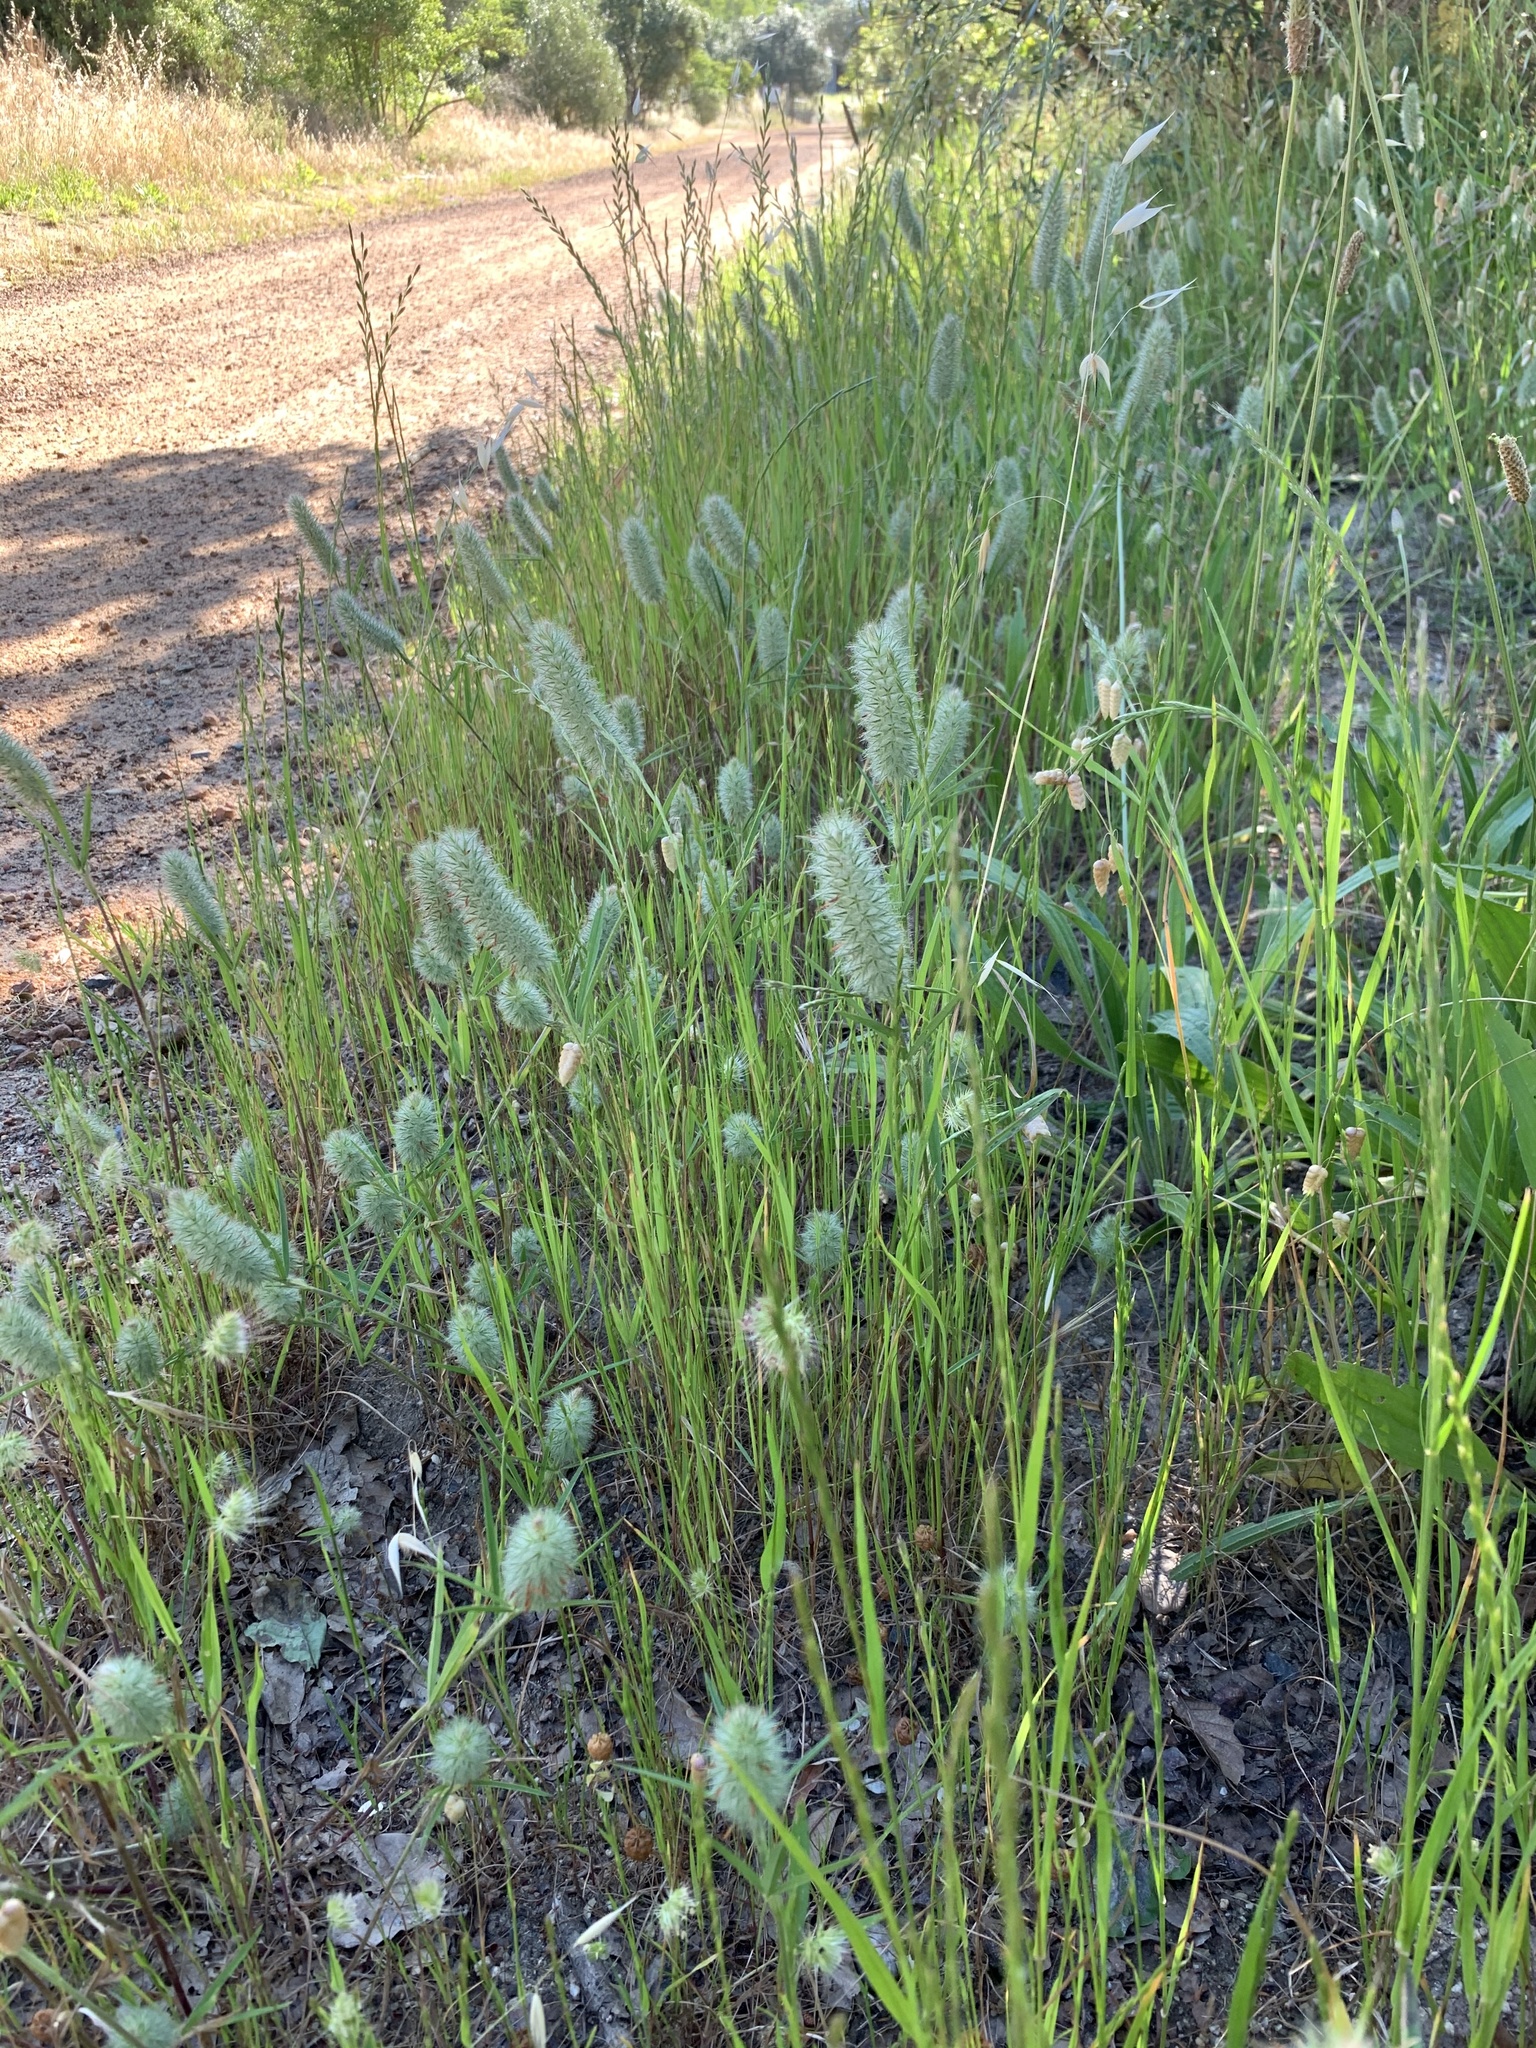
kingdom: Plantae
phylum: Tracheophyta
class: Magnoliopsida
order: Fabales
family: Fabaceae
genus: Trifolium
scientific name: Trifolium angustifolium
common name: Narrow clover
